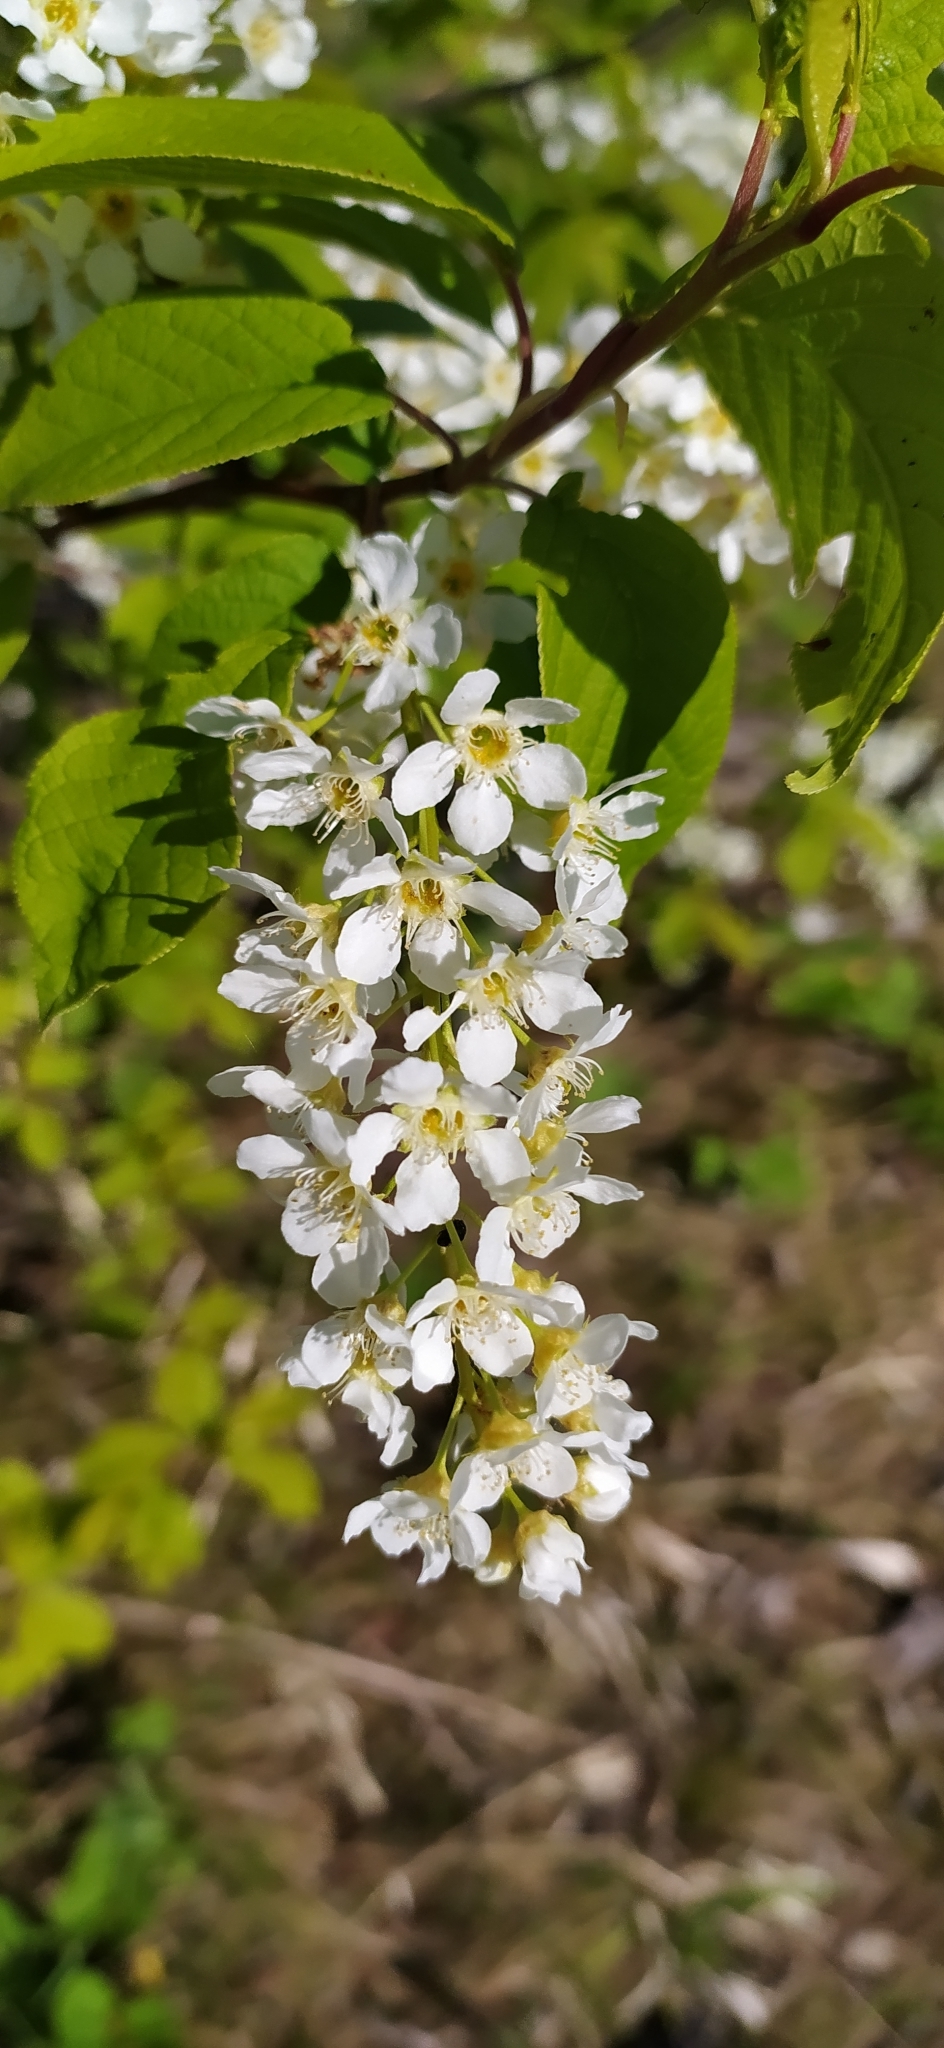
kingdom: Plantae
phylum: Tracheophyta
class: Magnoliopsida
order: Rosales
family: Rosaceae
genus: Prunus
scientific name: Prunus padus
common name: Bird cherry
